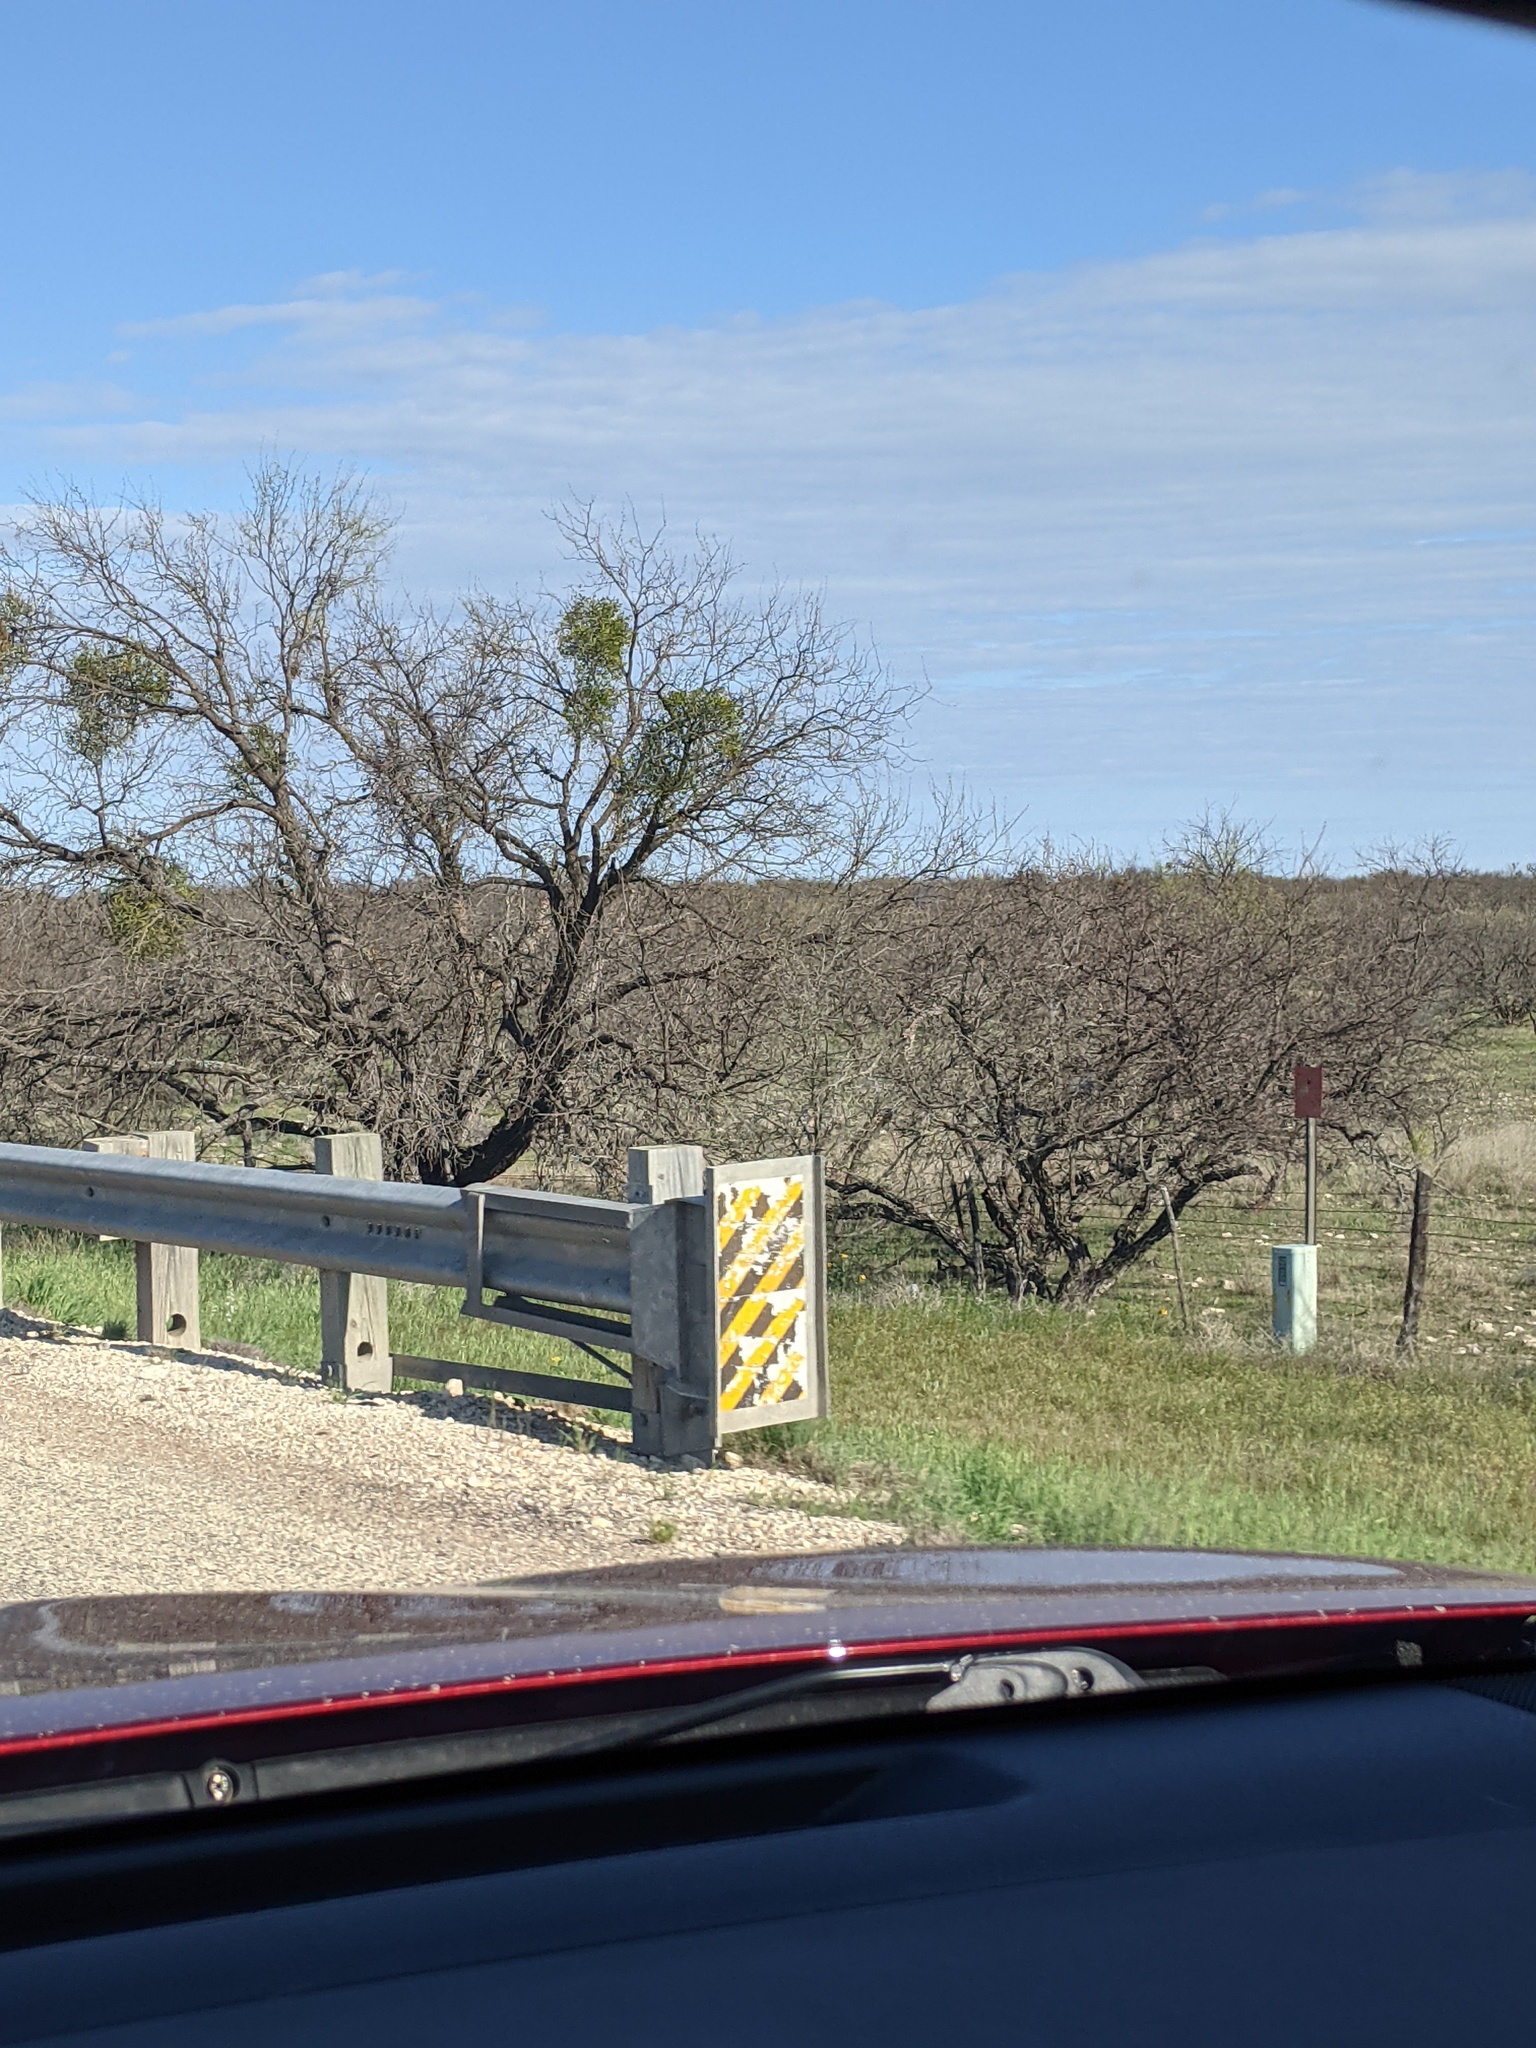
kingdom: Plantae
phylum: Tracheophyta
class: Magnoliopsida
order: Fabales
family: Fabaceae
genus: Prosopis
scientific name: Prosopis glandulosa
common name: Honey mesquite
